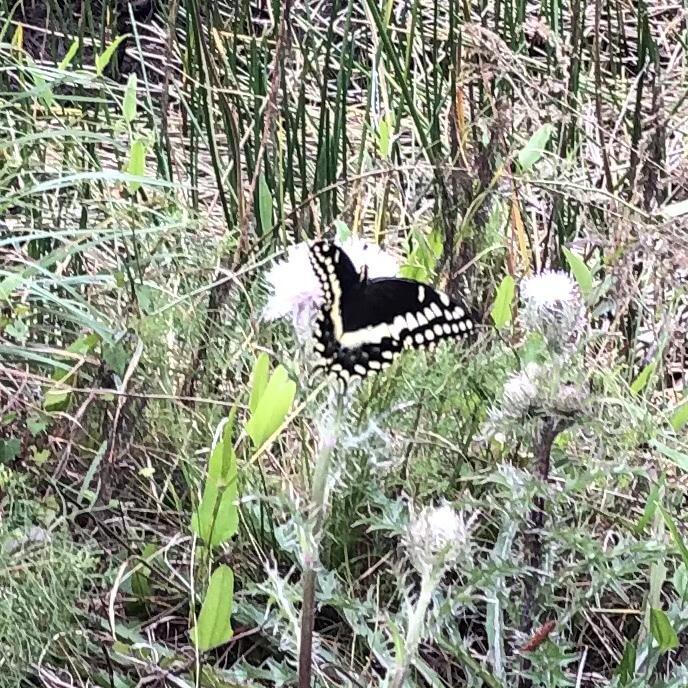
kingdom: Animalia
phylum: Arthropoda
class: Insecta
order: Lepidoptera
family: Papilionidae
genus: Papilio
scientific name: Papilio palamedes
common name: Palamedes swallowtail
